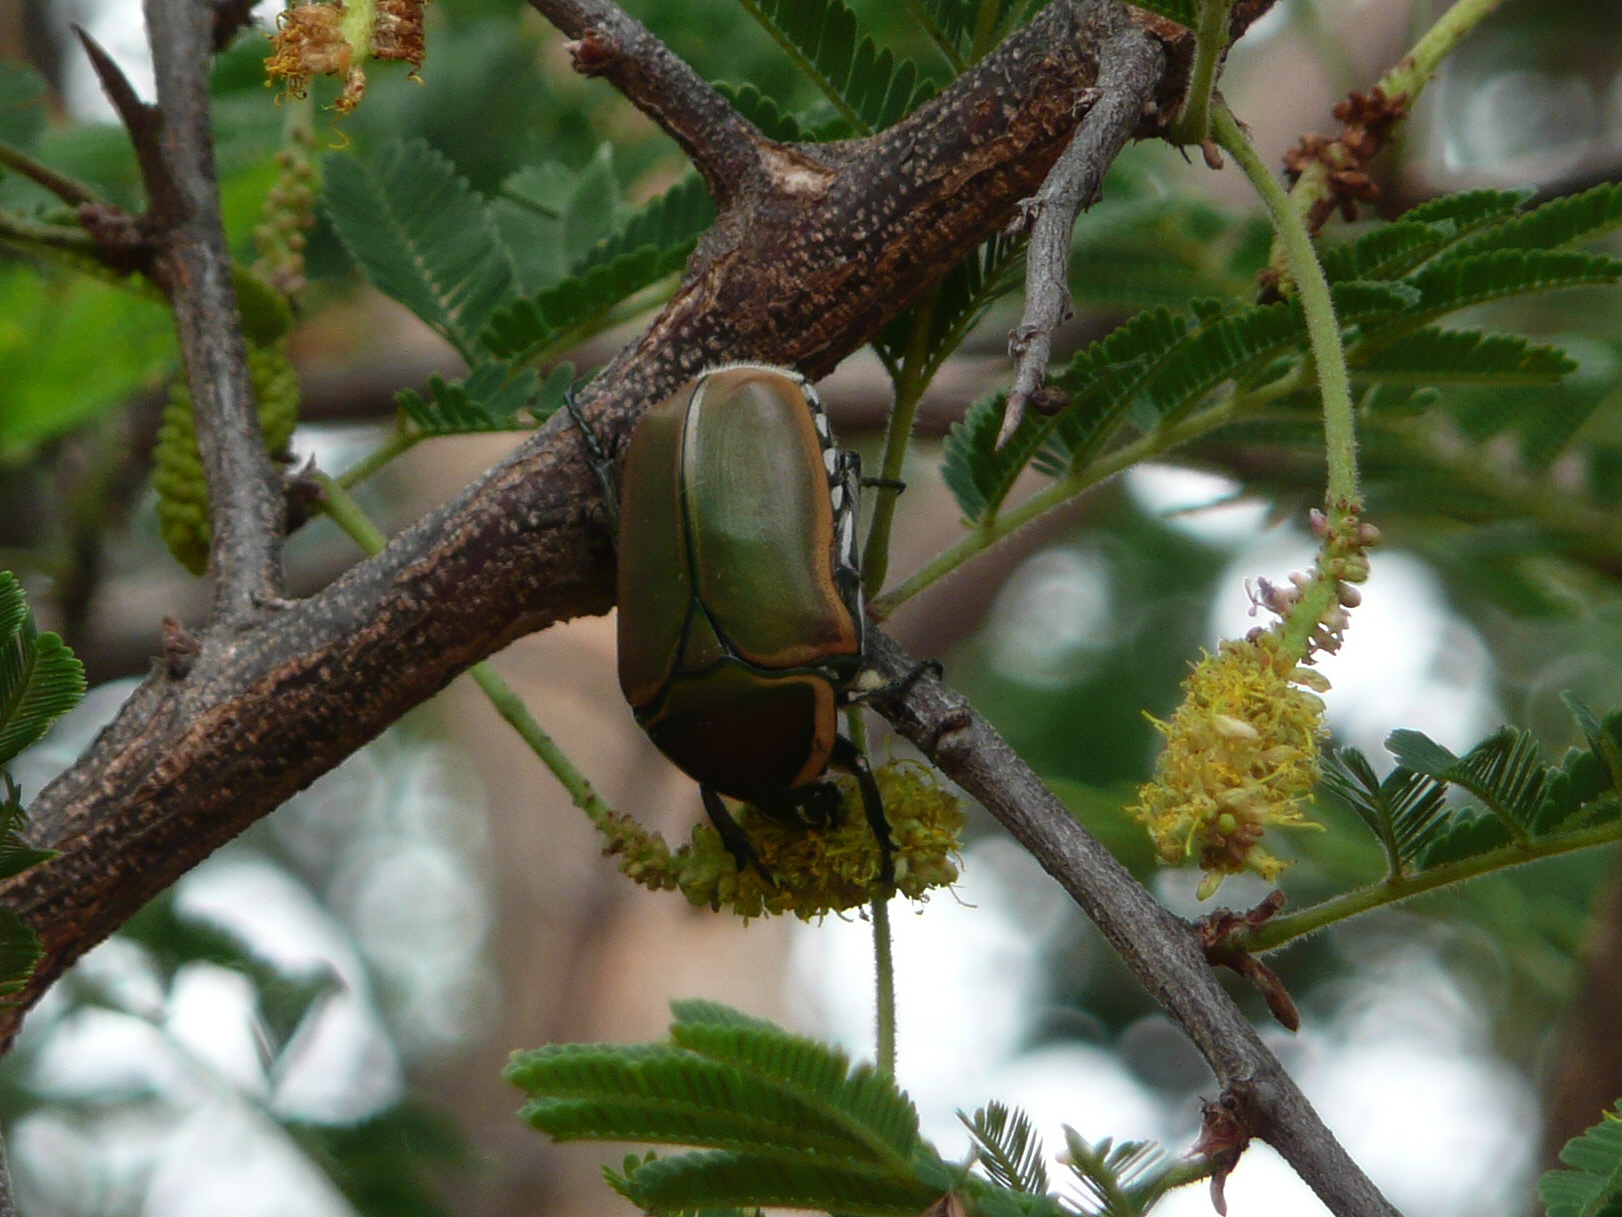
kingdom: Animalia
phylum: Arthropoda
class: Insecta
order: Coleoptera
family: Scarabaeidae
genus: Dischista
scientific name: Dischista cincta
